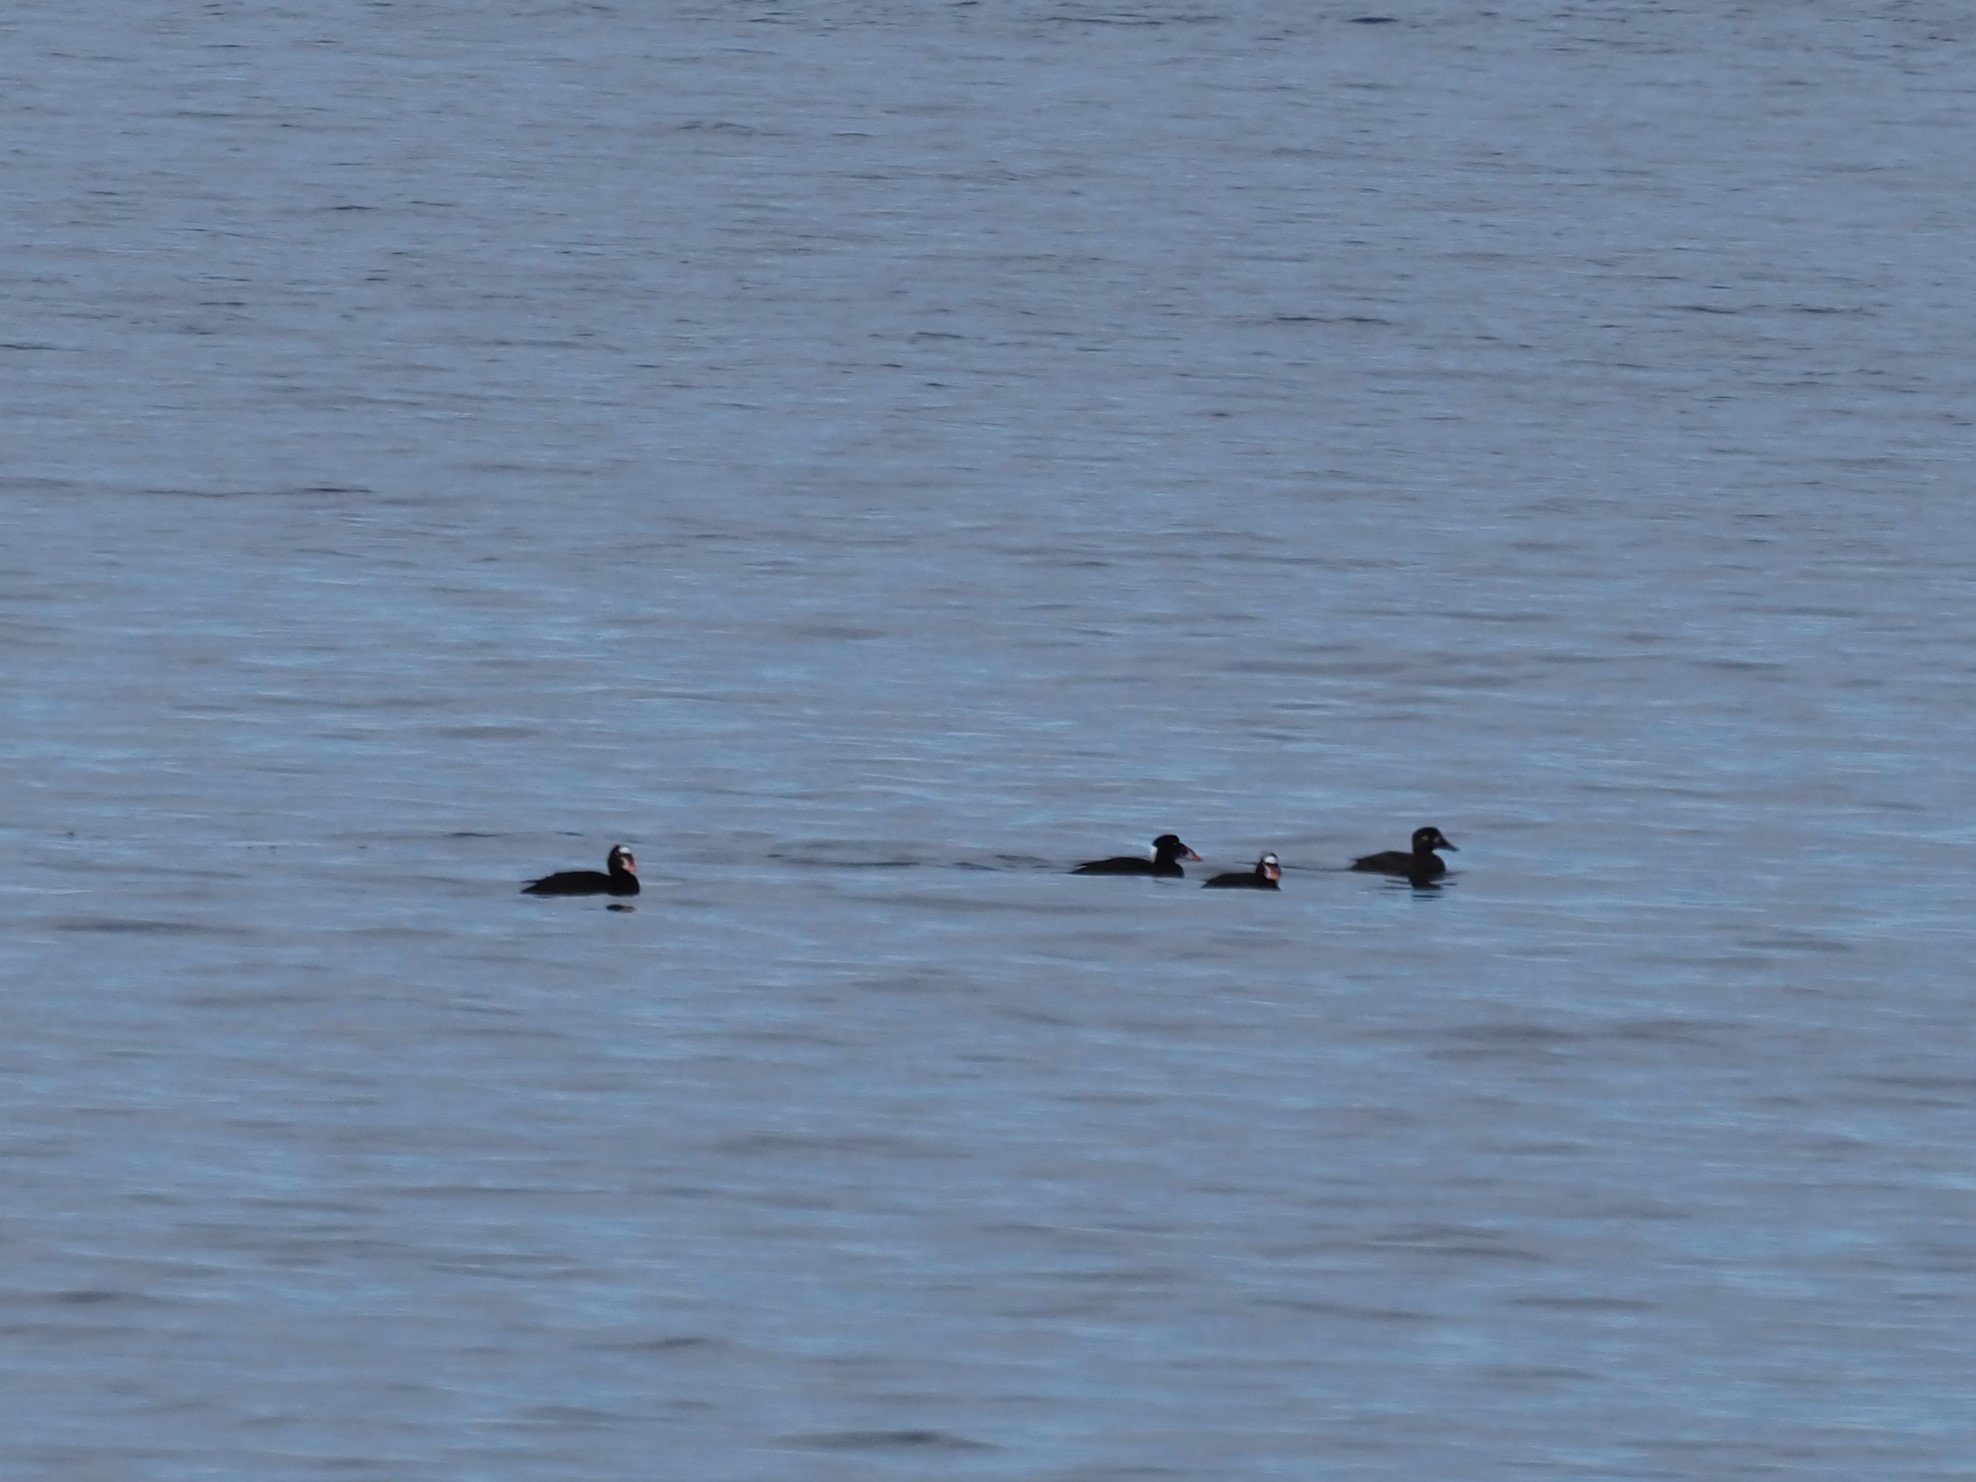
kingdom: Animalia
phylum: Chordata
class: Aves
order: Anseriformes
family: Anatidae
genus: Melanitta
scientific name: Melanitta perspicillata
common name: Surf scoter
